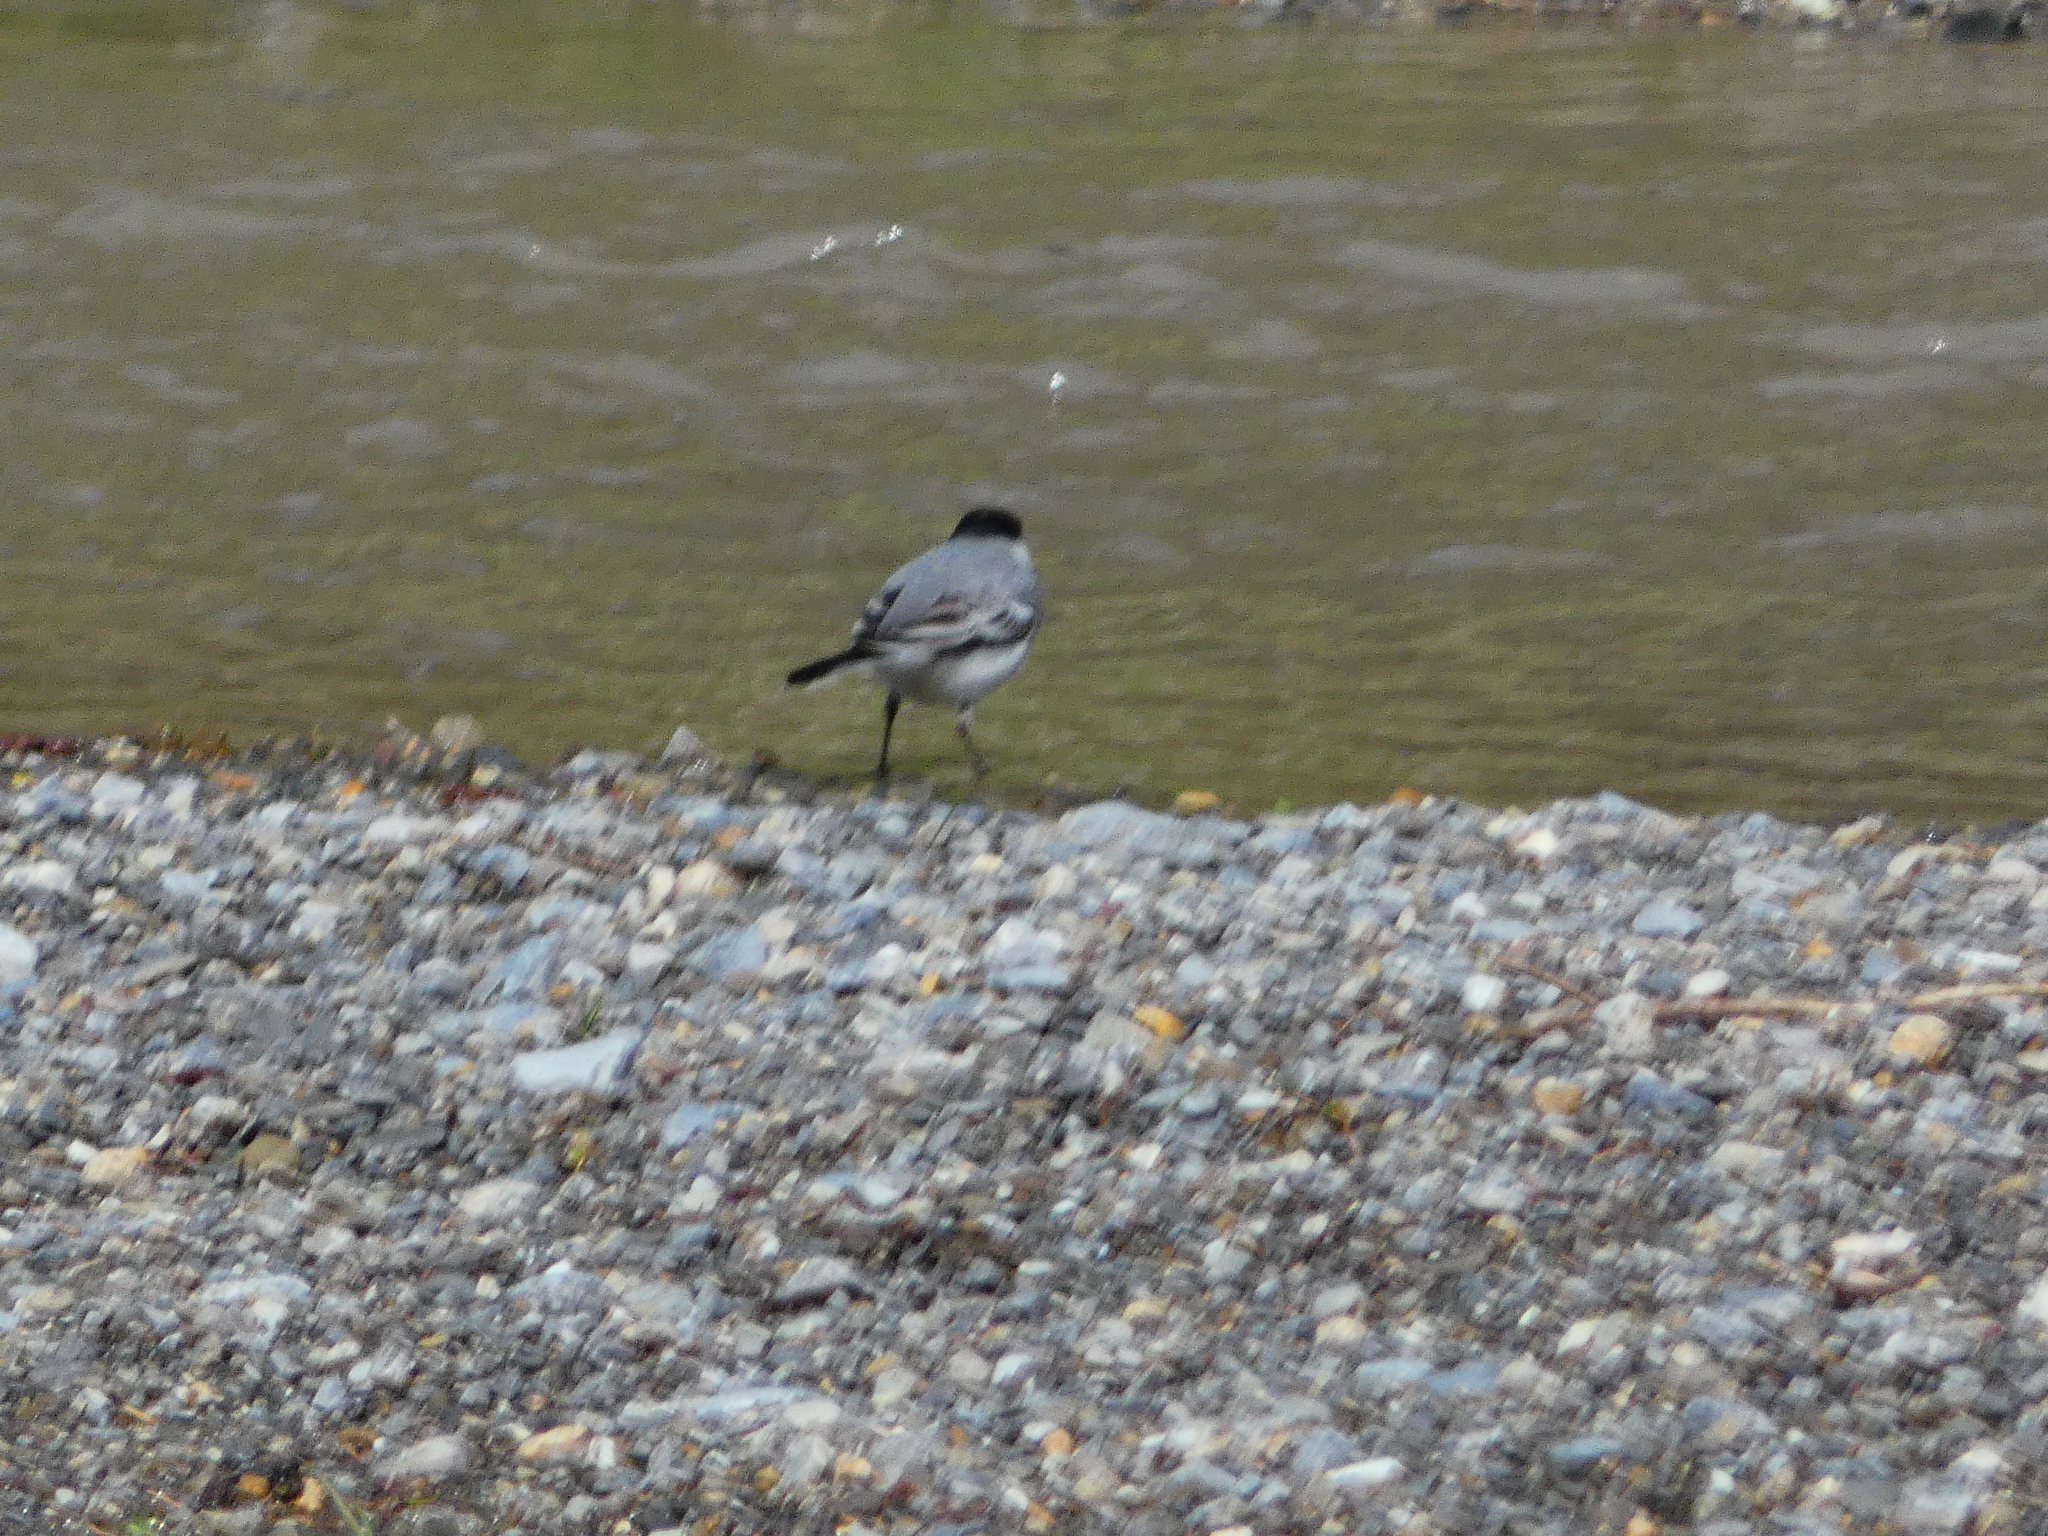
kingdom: Animalia
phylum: Chordata
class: Aves
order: Passeriformes
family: Motacillidae
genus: Motacilla
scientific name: Motacilla alba
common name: White wagtail
